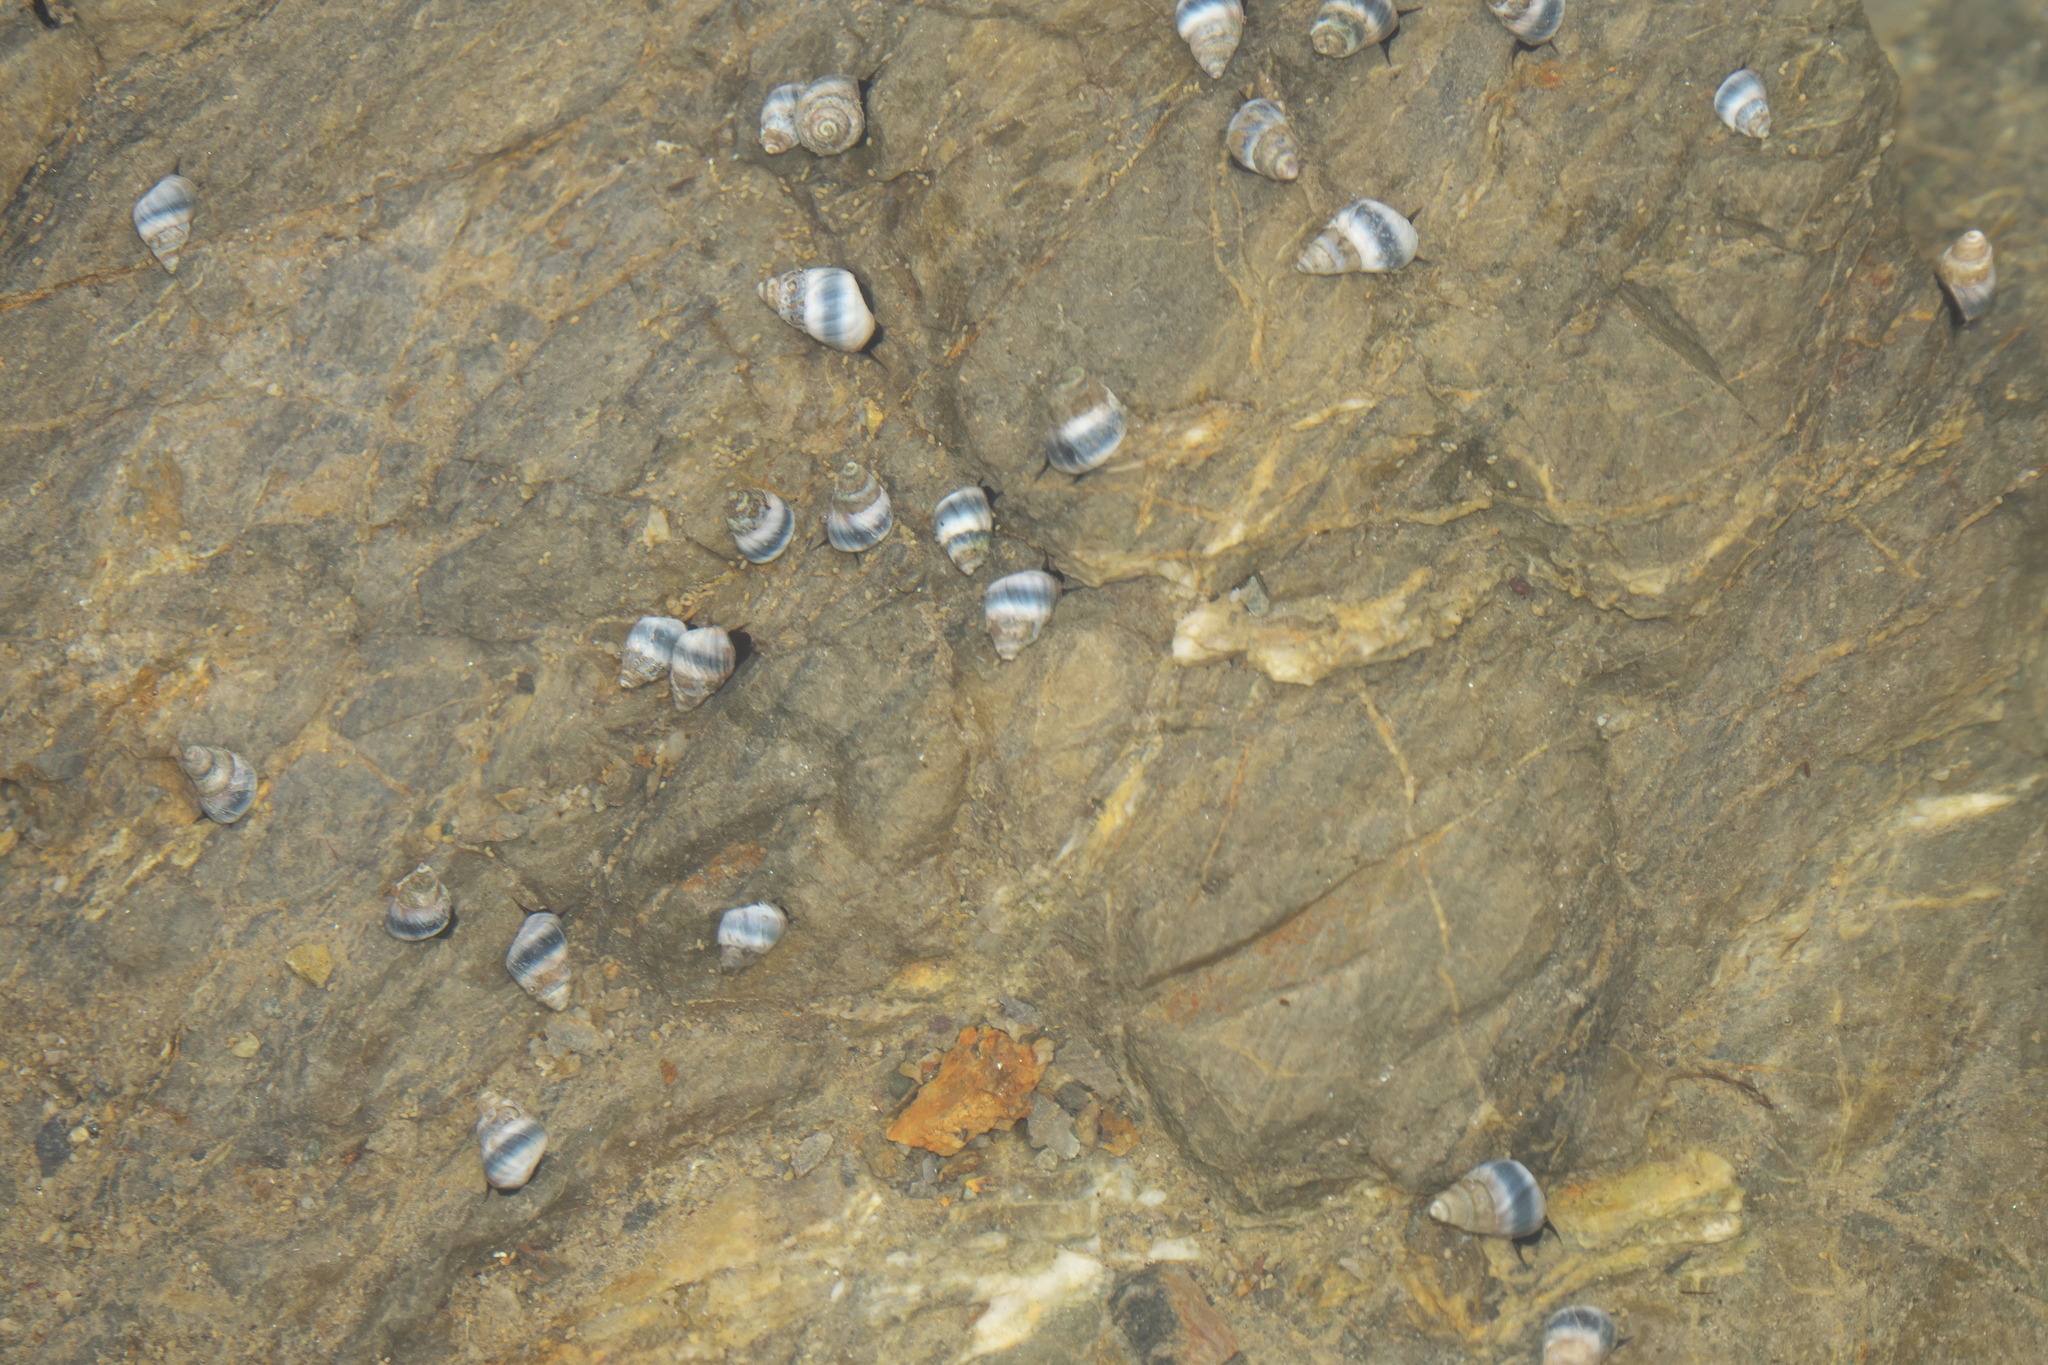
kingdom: Animalia
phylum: Mollusca
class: Gastropoda
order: Littorinimorpha
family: Littorinidae
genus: Austrolittorina
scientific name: Austrolittorina antipodum
